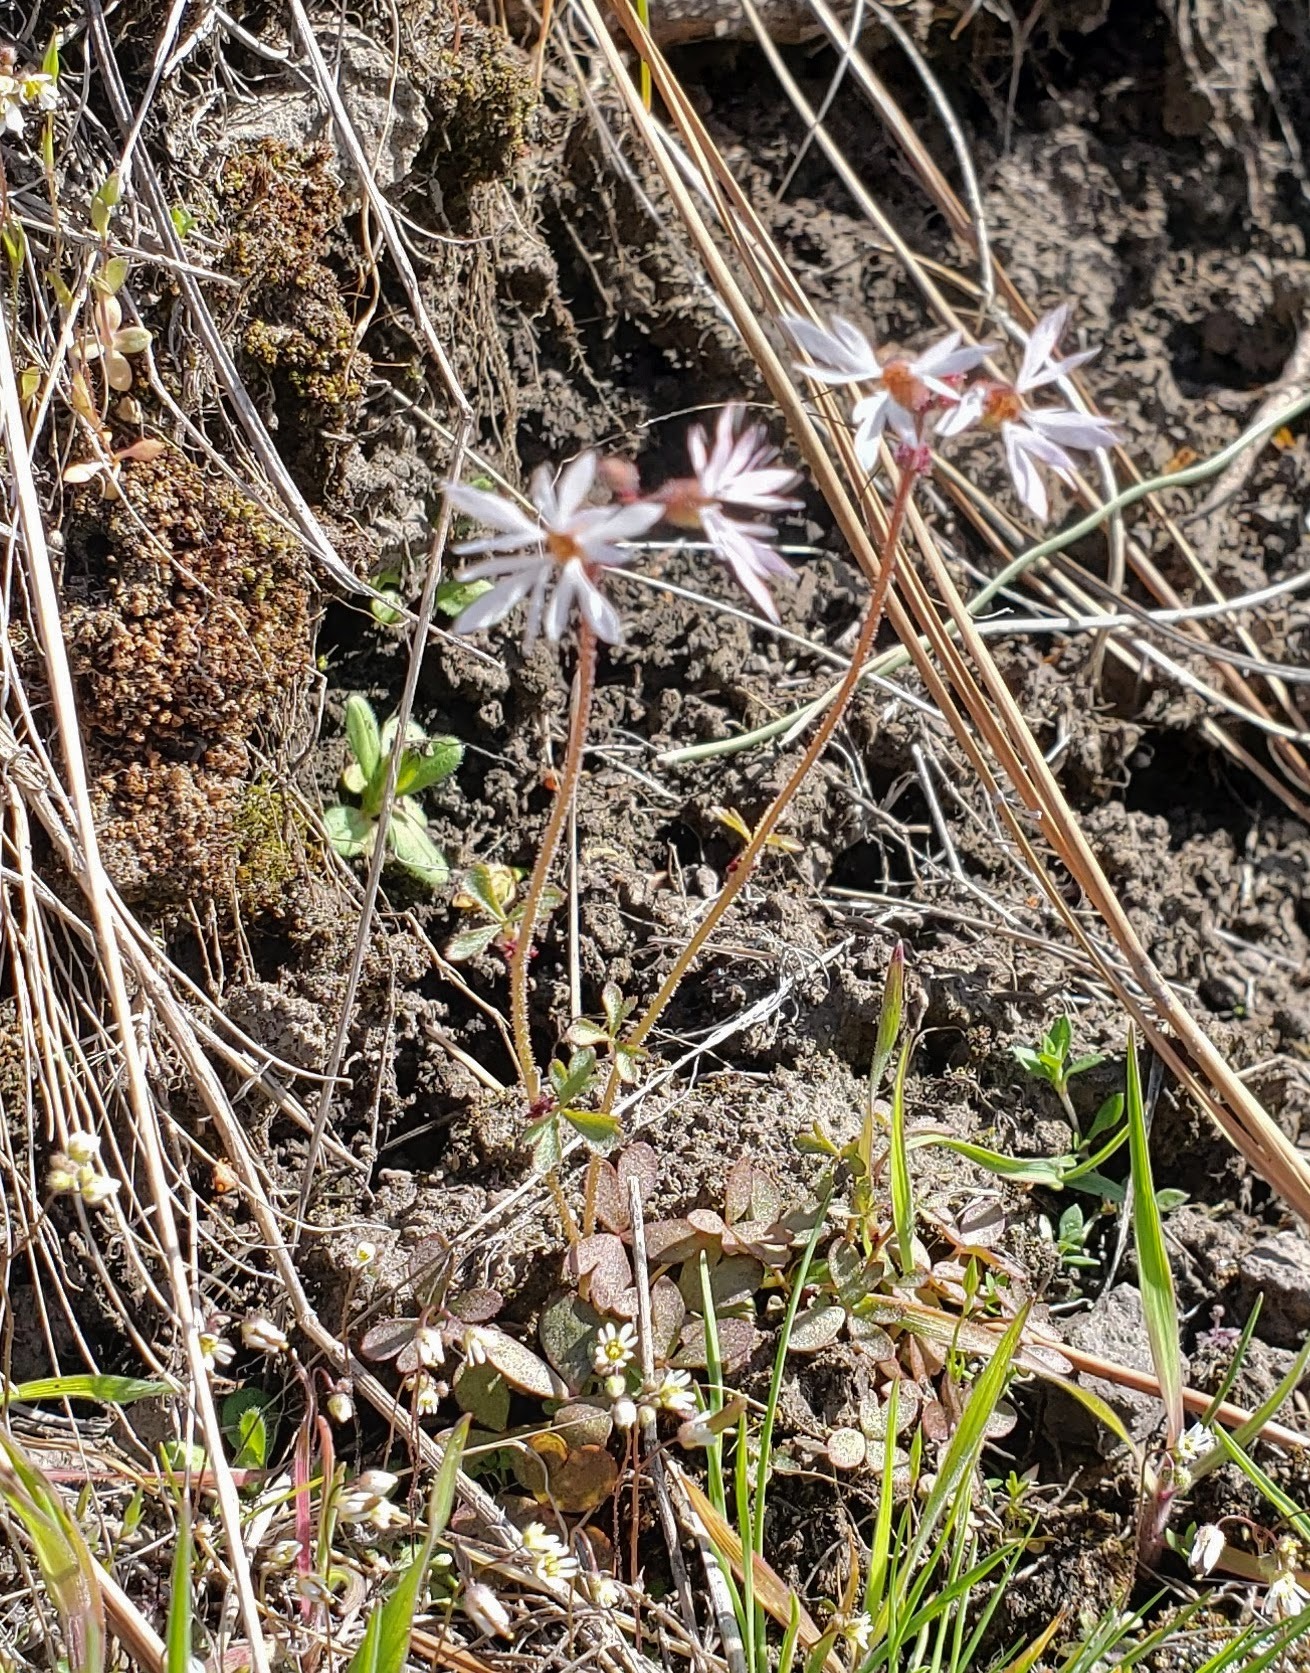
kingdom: Plantae
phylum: Tracheophyta
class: Magnoliopsida
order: Saxifragales
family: Saxifragaceae
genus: Lithophragma
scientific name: Lithophragma glabrum
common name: Bulbous prairie-star
